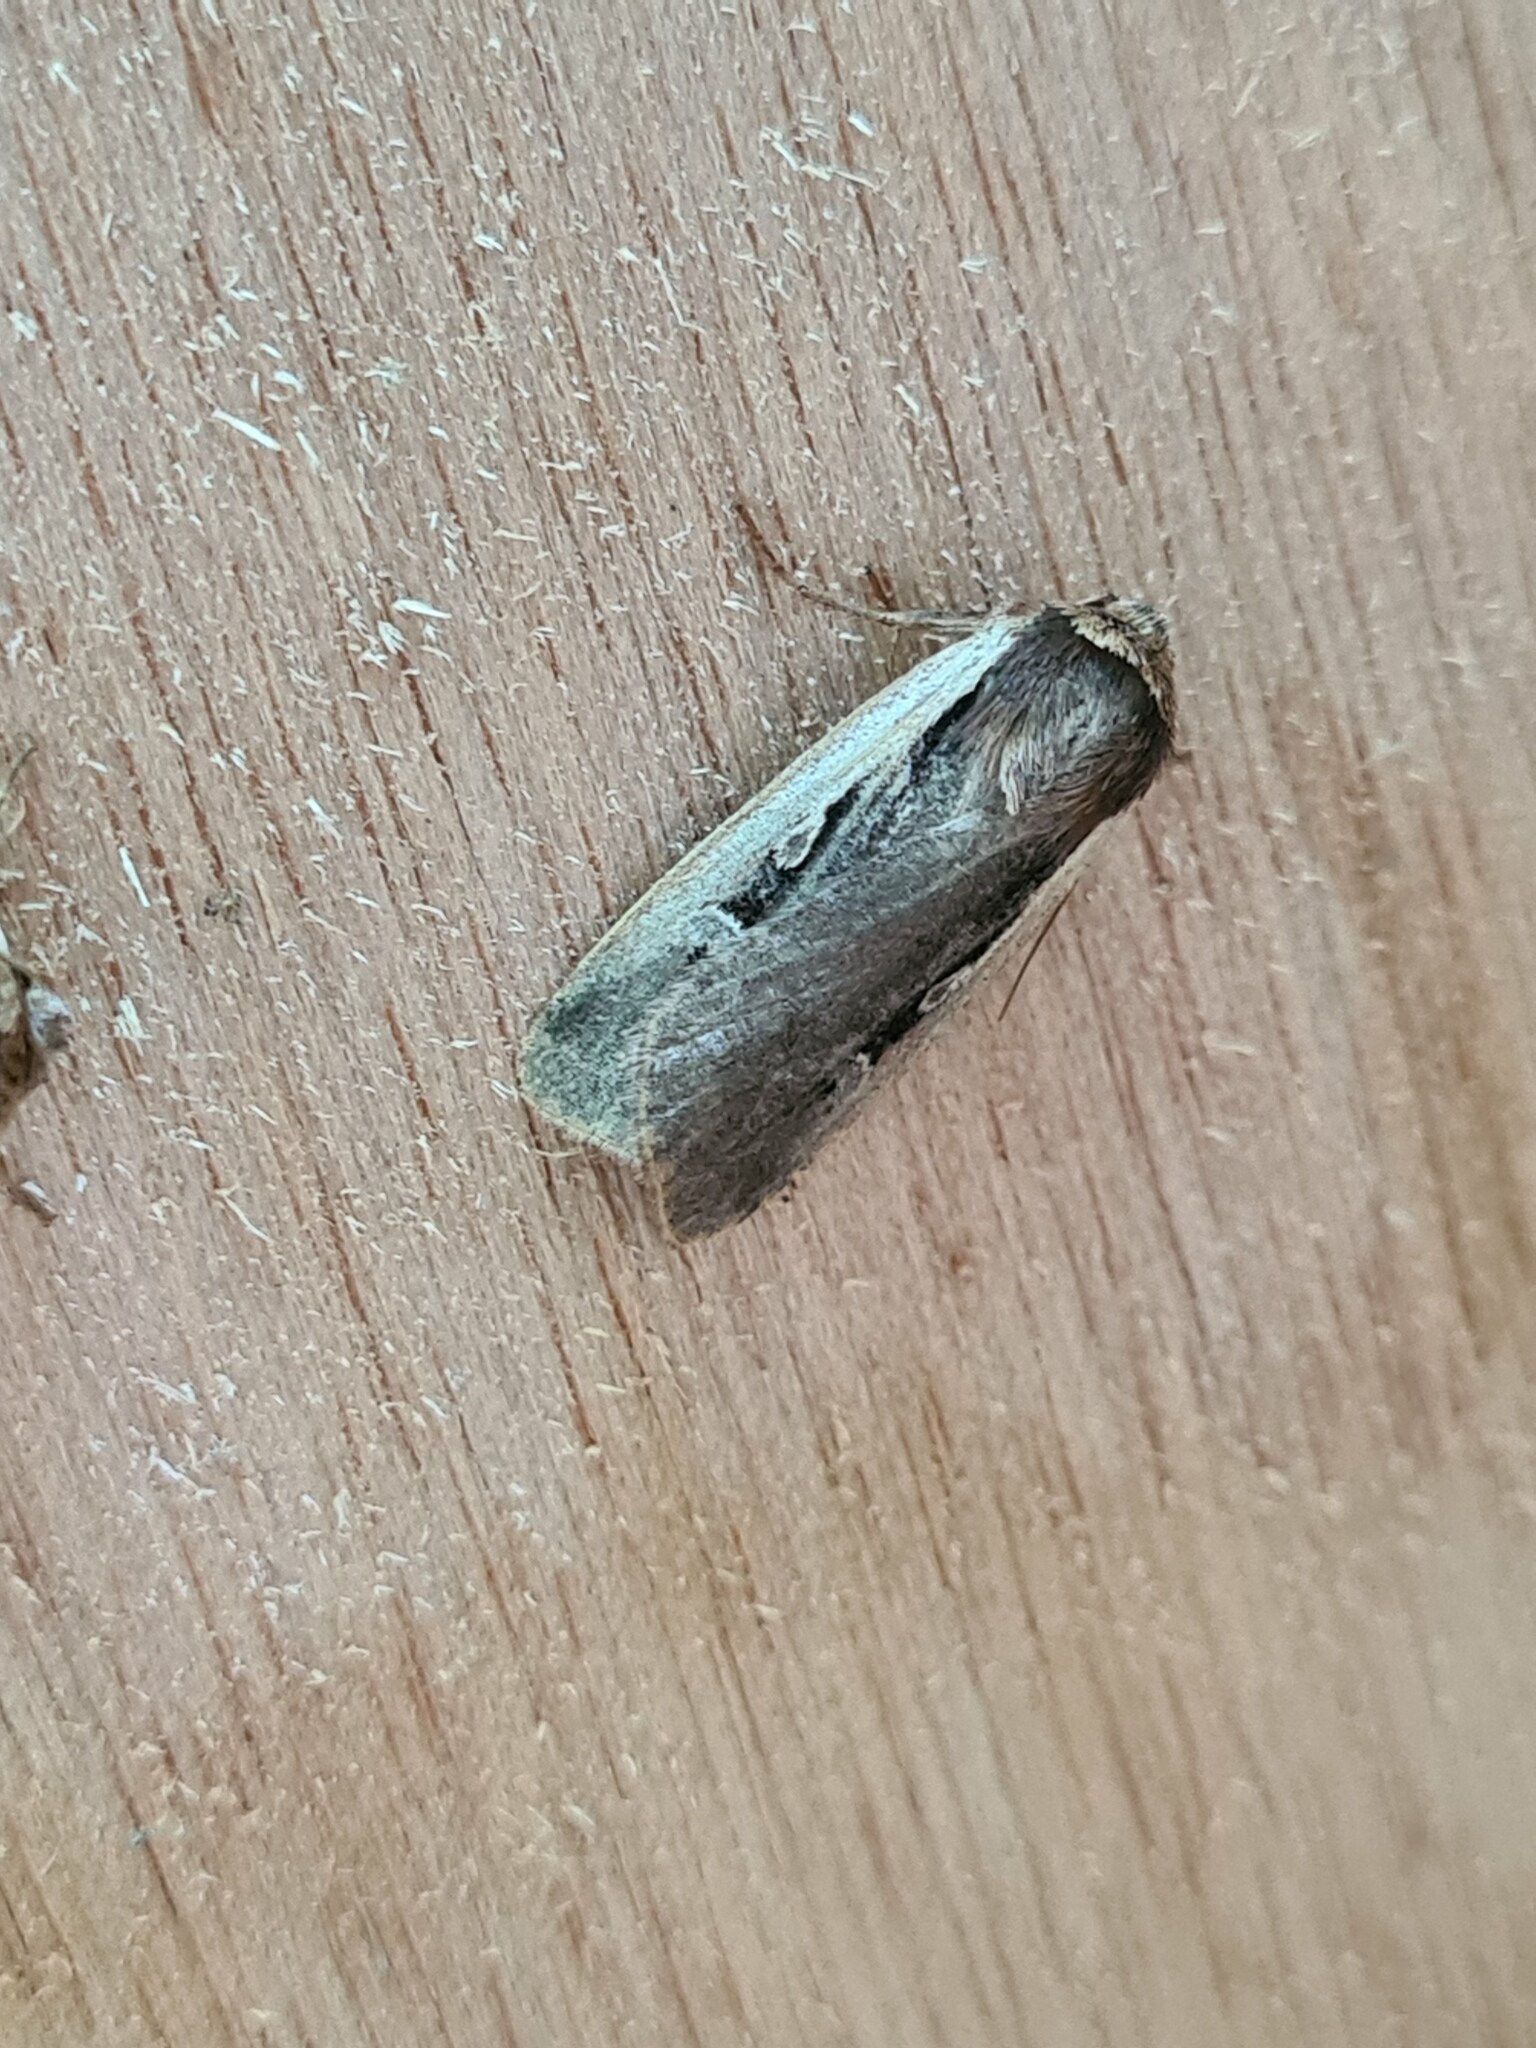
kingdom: Animalia
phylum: Arthropoda
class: Insecta
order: Lepidoptera
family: Noctuidae
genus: Ochropleura
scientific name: Ochropleura plecta
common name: Flame shoulder
